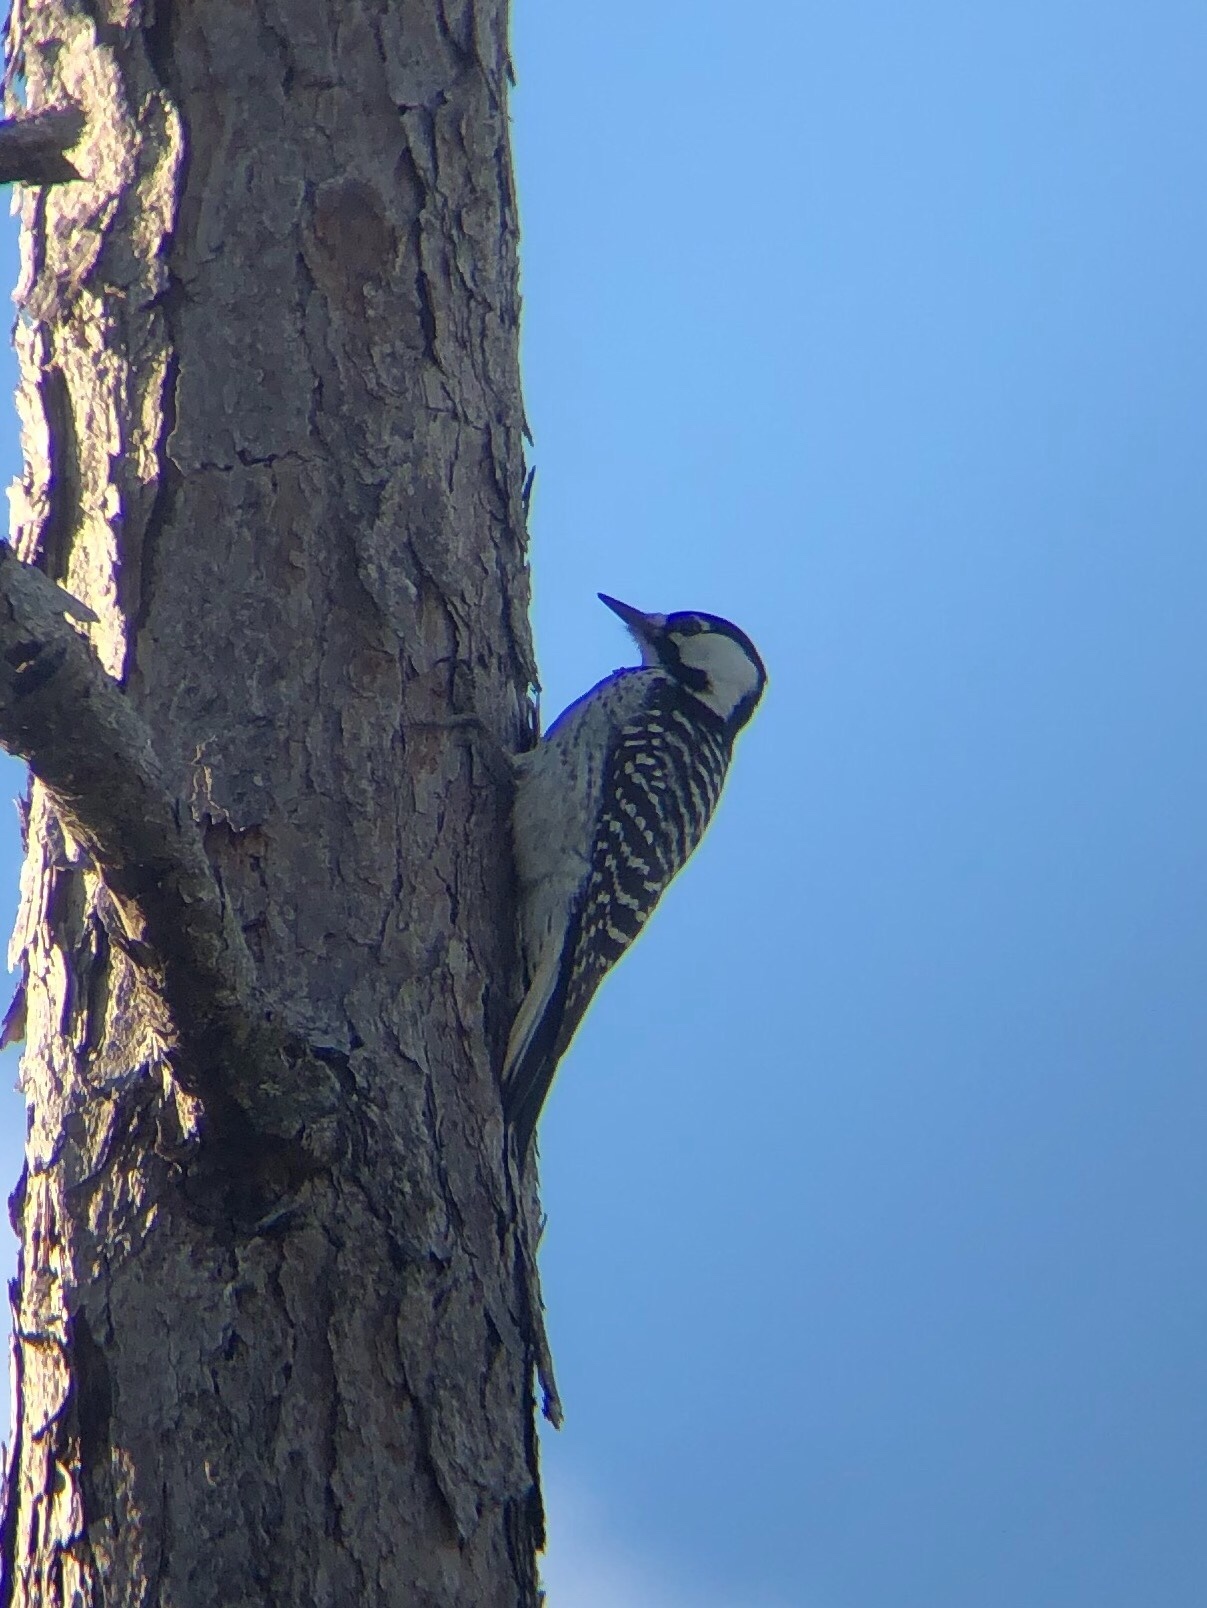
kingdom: Animalia
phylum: Chordata
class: Aves
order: Piciformes
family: Picidae
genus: Leuconotopicus
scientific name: Leuconotopicus borealis
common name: Red-cockaded woodpecker
